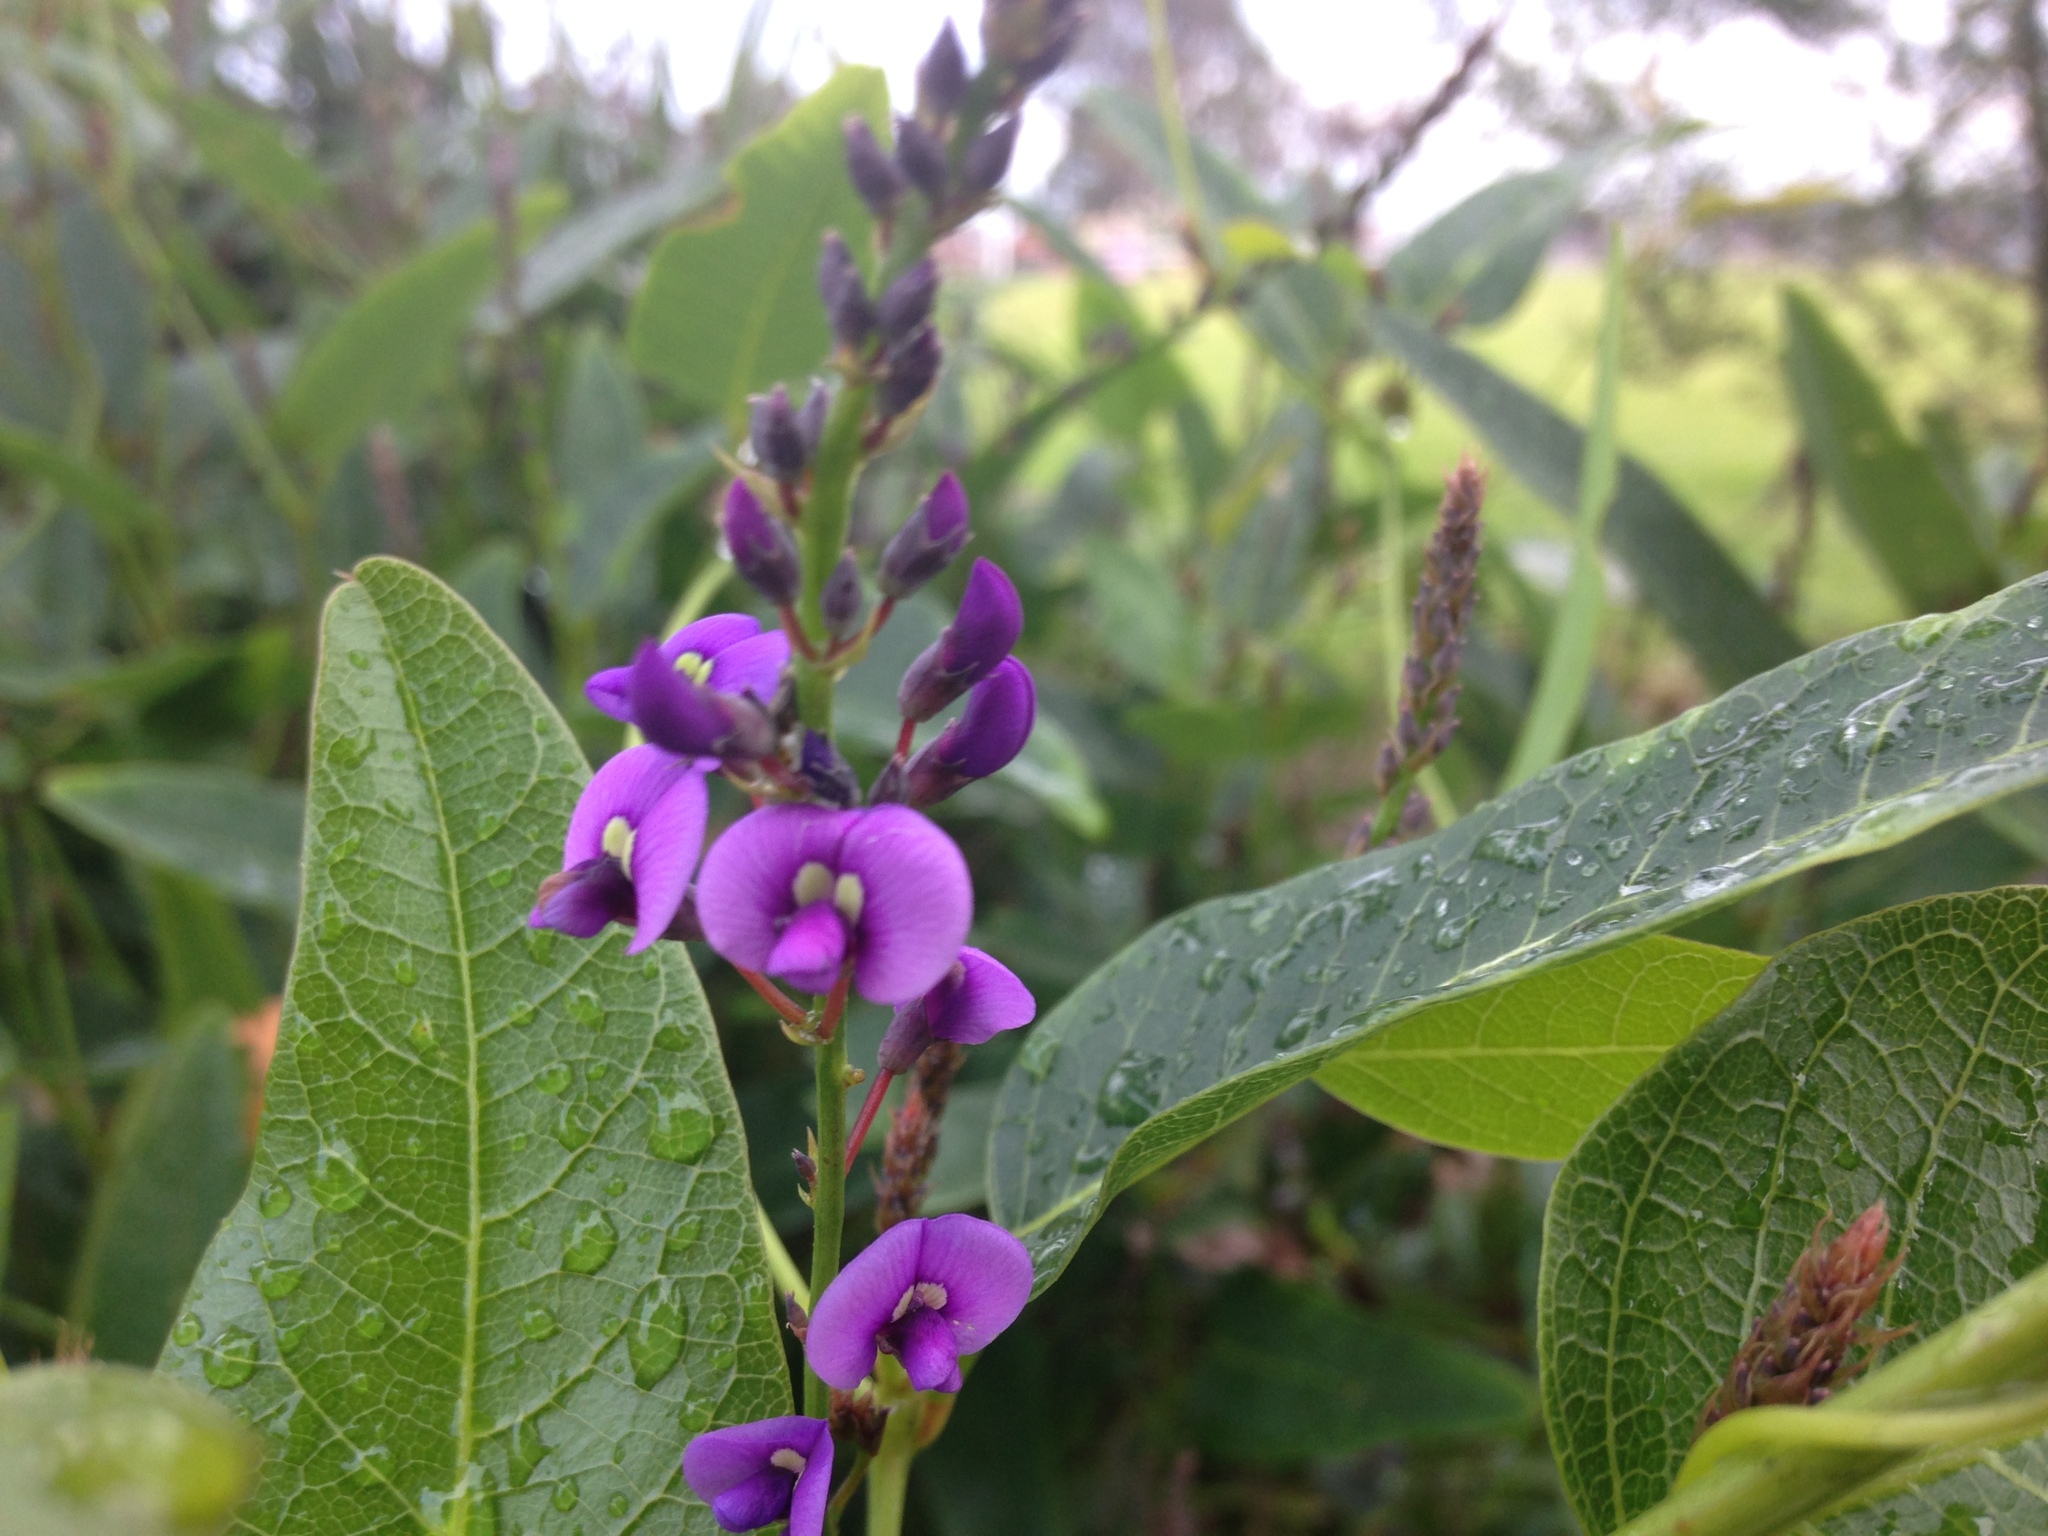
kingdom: Plantae
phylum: Tracheophyta
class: Magnoliopsida
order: Fabales
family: Fabaceae
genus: Hardenbergia
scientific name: Hardenbergia violacea
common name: Coral-pea
